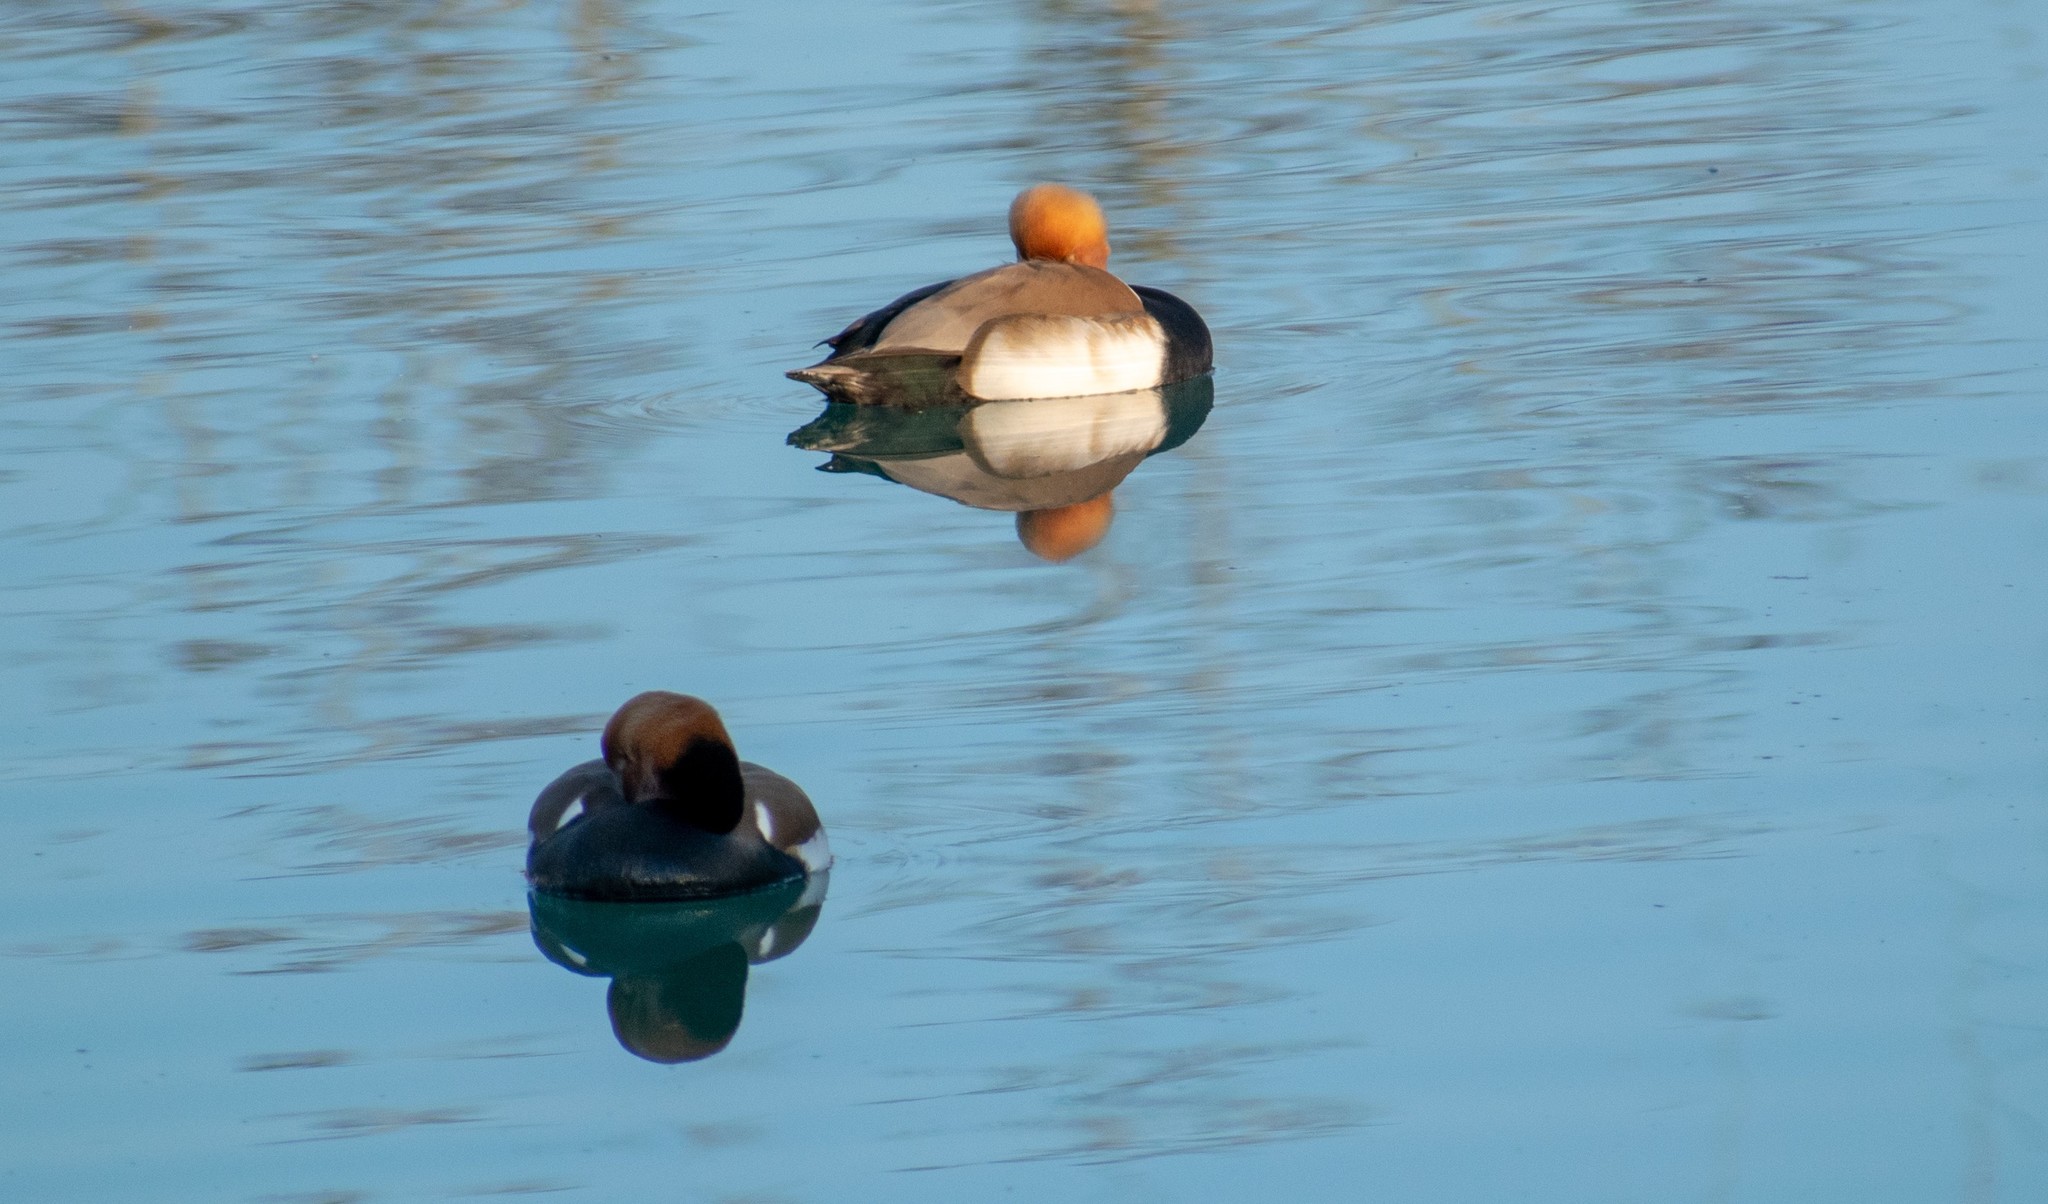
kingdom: Animalia
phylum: Chordata
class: Aves
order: Anseriformes
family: Anatidae
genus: Netta
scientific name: Netta rufina
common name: Red-crested pochard
